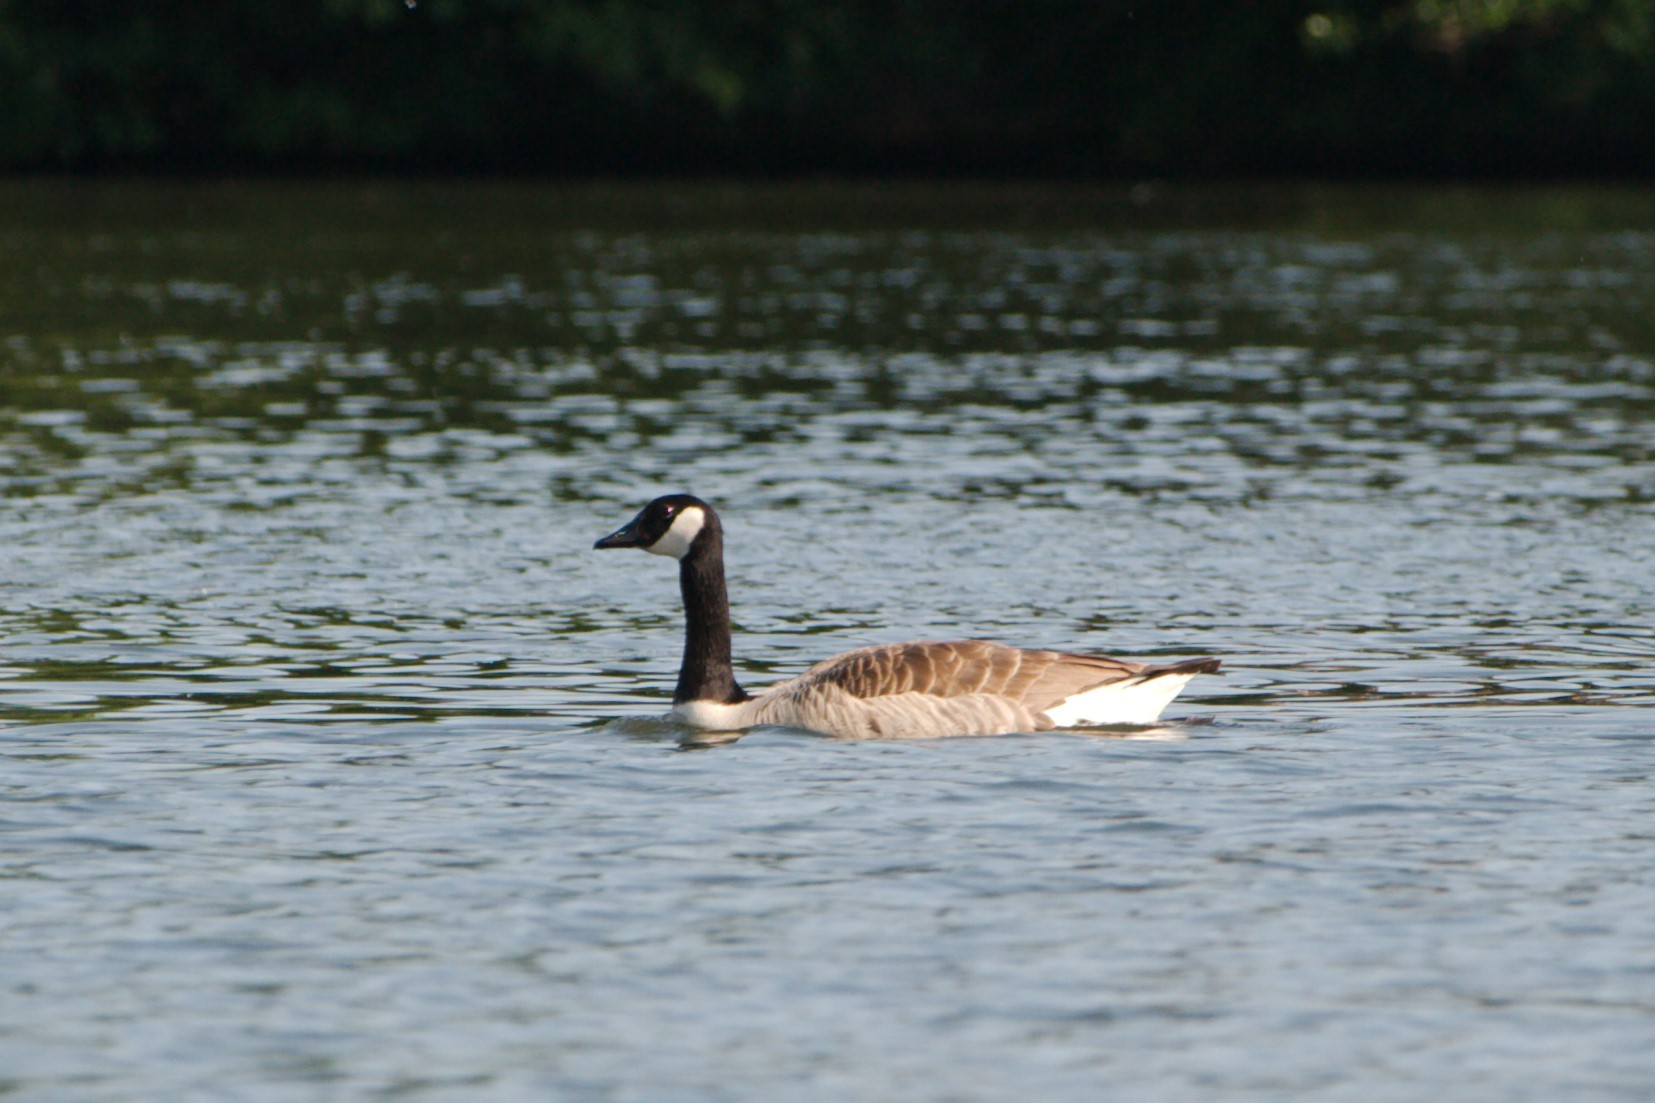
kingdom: Animalia
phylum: Chordata
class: Aves
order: Anseriformes
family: Anatidae
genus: Branta
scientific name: Branta canadensis
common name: Canada goose
